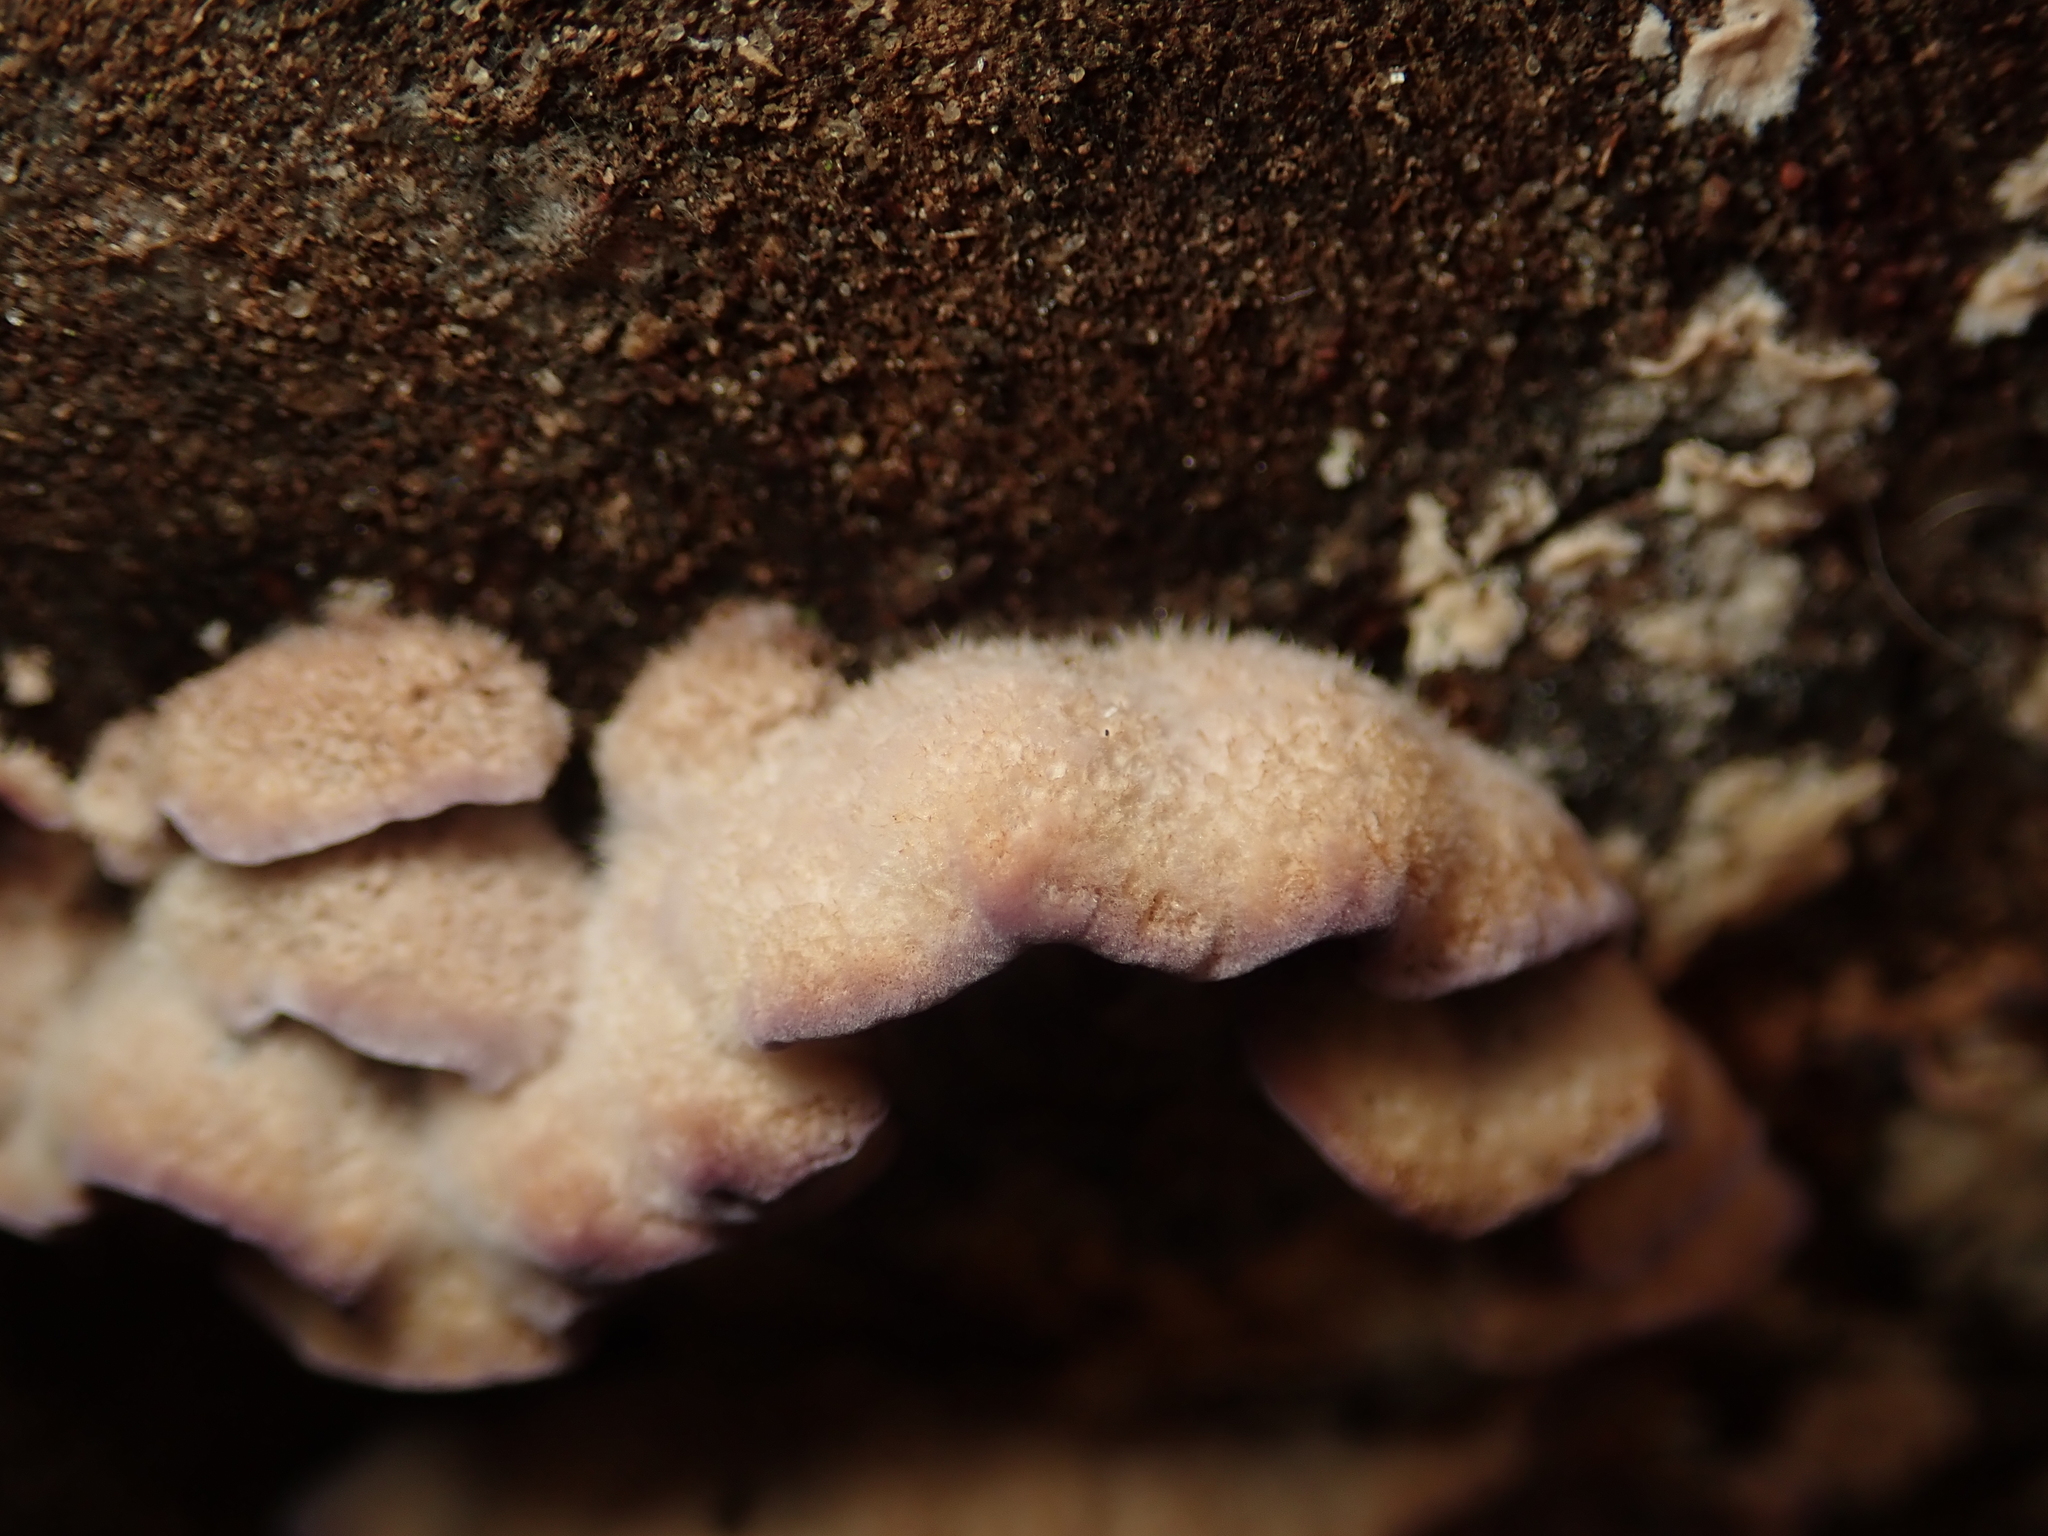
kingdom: Fungi
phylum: Basidiomycota
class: Agaricomycetes
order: Agaricales
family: Cyphellaceae
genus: Chondrostereum
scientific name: Chondrostereum purpureum
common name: Silver leaf disease
